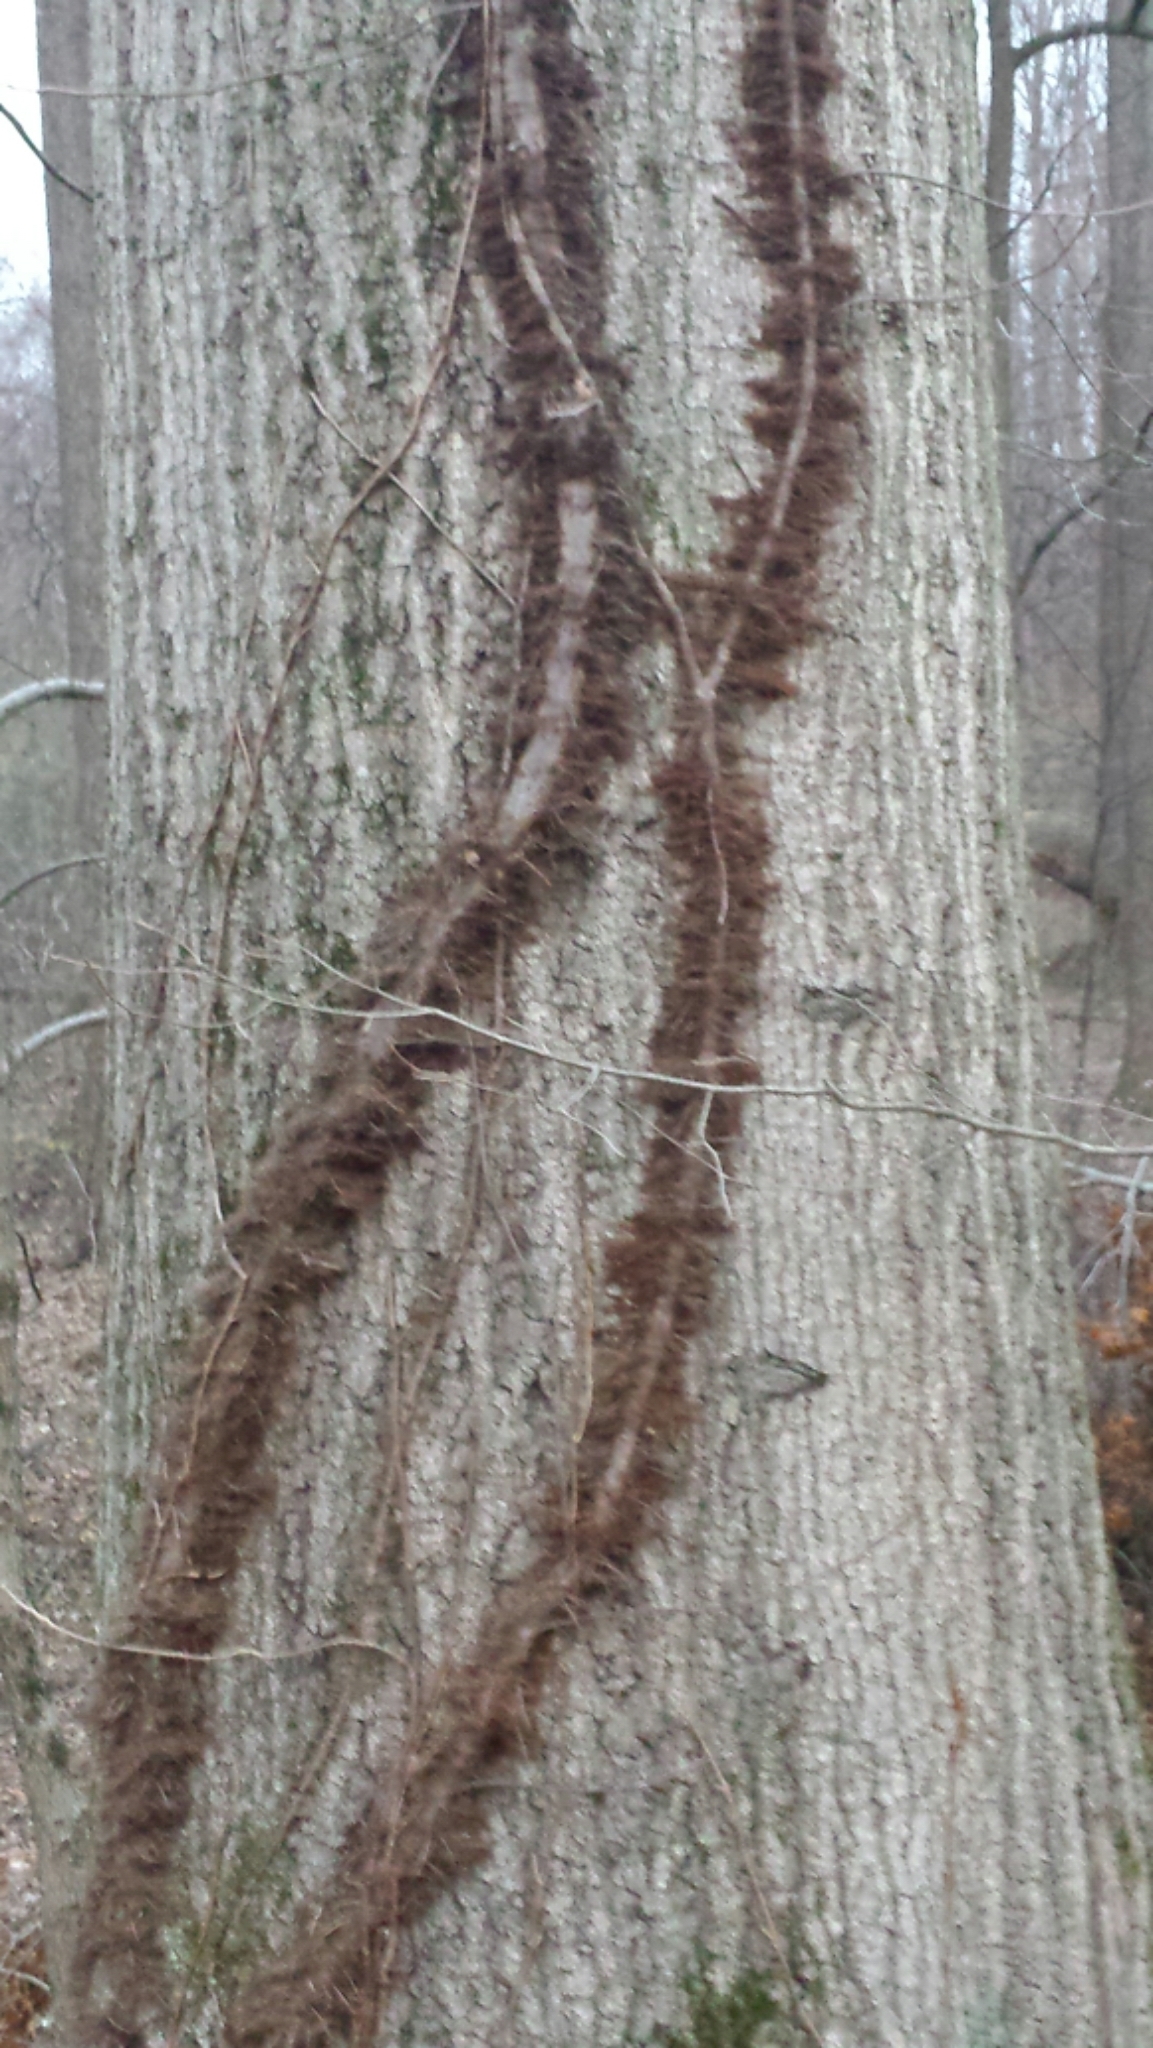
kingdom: Plantae
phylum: Tracheophyta
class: Magnoliopsida
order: Sapindales
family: Anacardiaceae
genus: Toxicodendron
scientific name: Toxicodendron radicans
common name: Poison ivy
